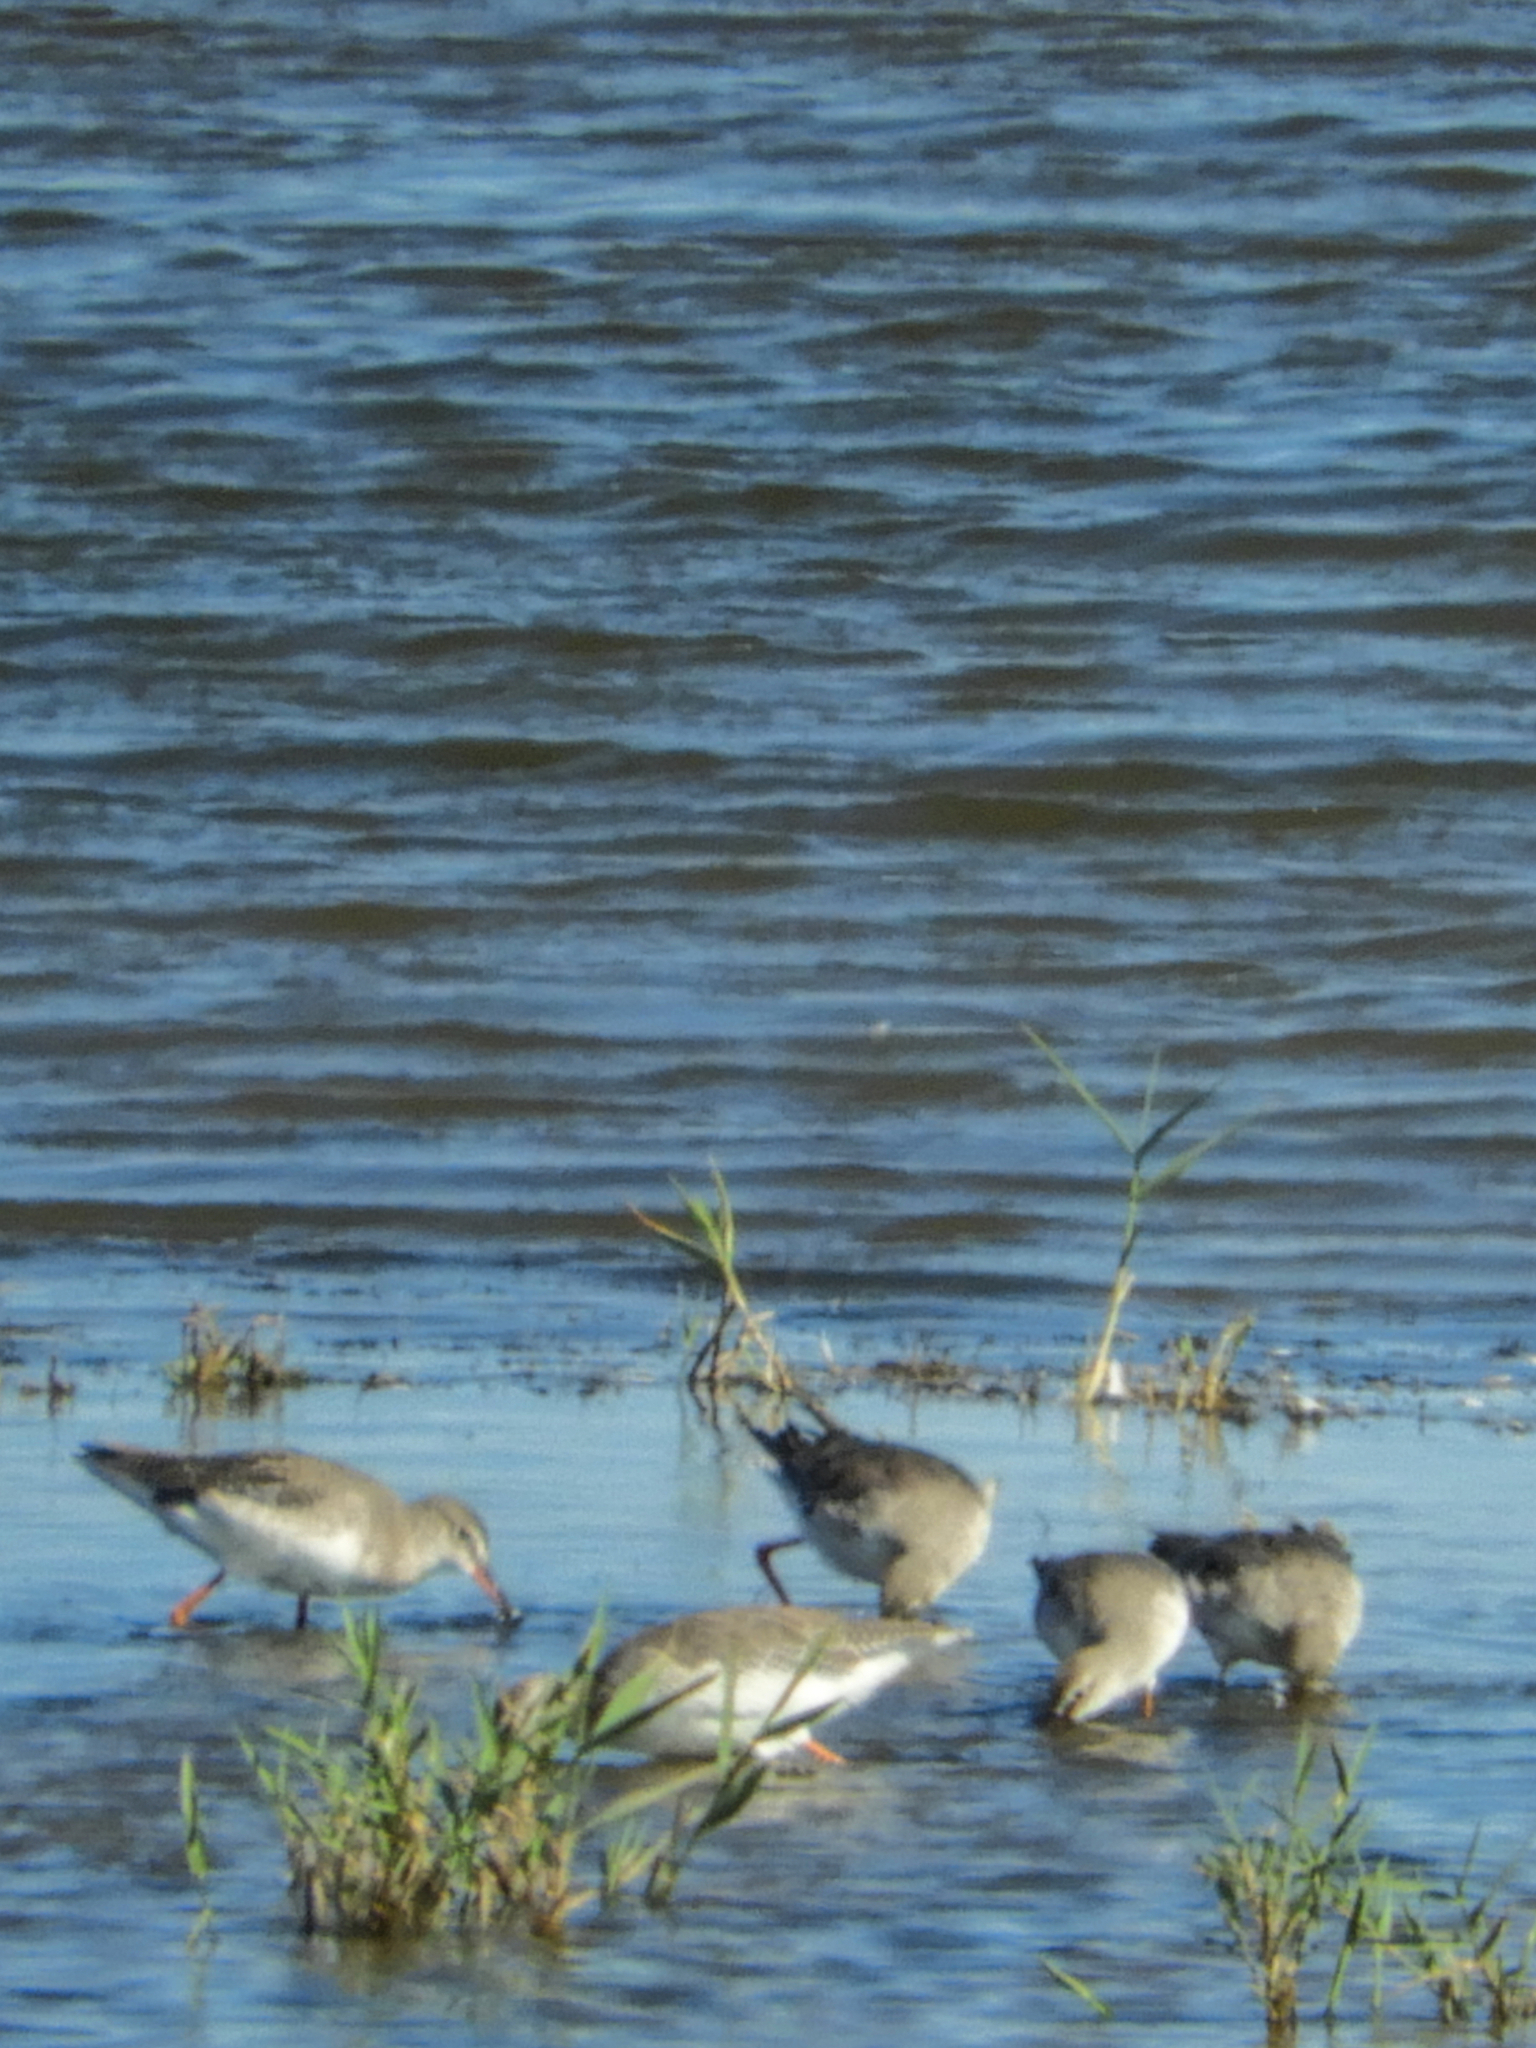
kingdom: Animalia
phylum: Chordata
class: Aves
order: Charadriiformes
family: Scolopacidae
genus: Tringa
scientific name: Tringa erythropus
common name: Spotted redshank
